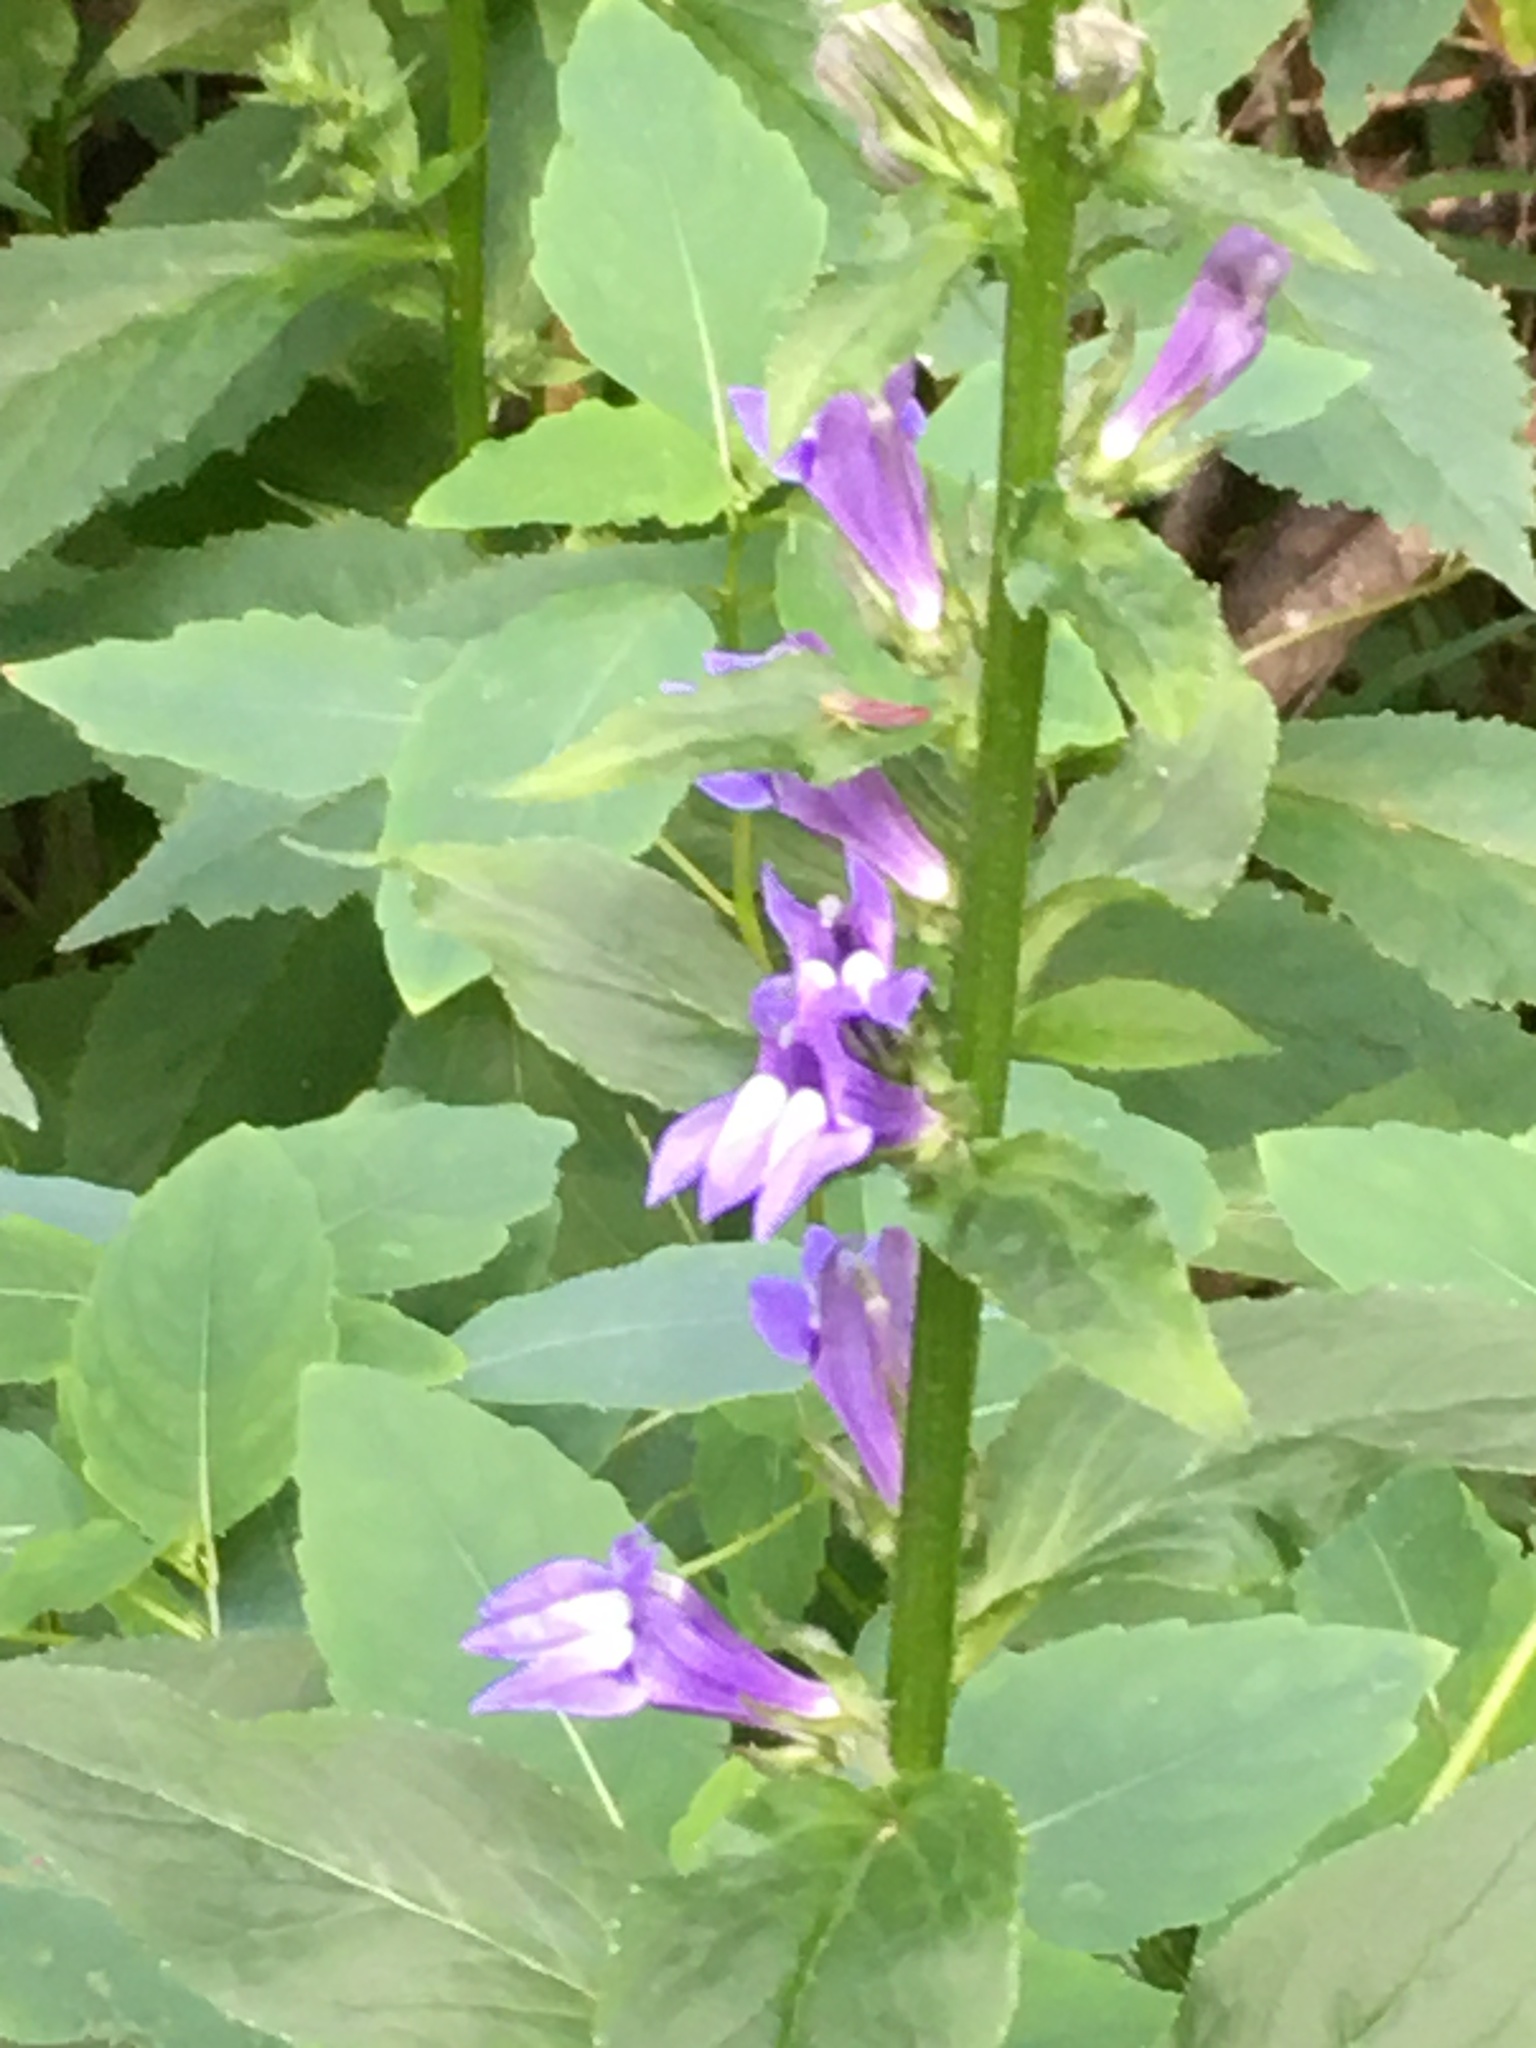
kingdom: Plantae
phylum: Tracheophyta
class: Magnoliopsida
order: Asterales
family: Campanulaceae
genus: Lobelia
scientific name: Lobelia siphilitica
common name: Great lobelia
